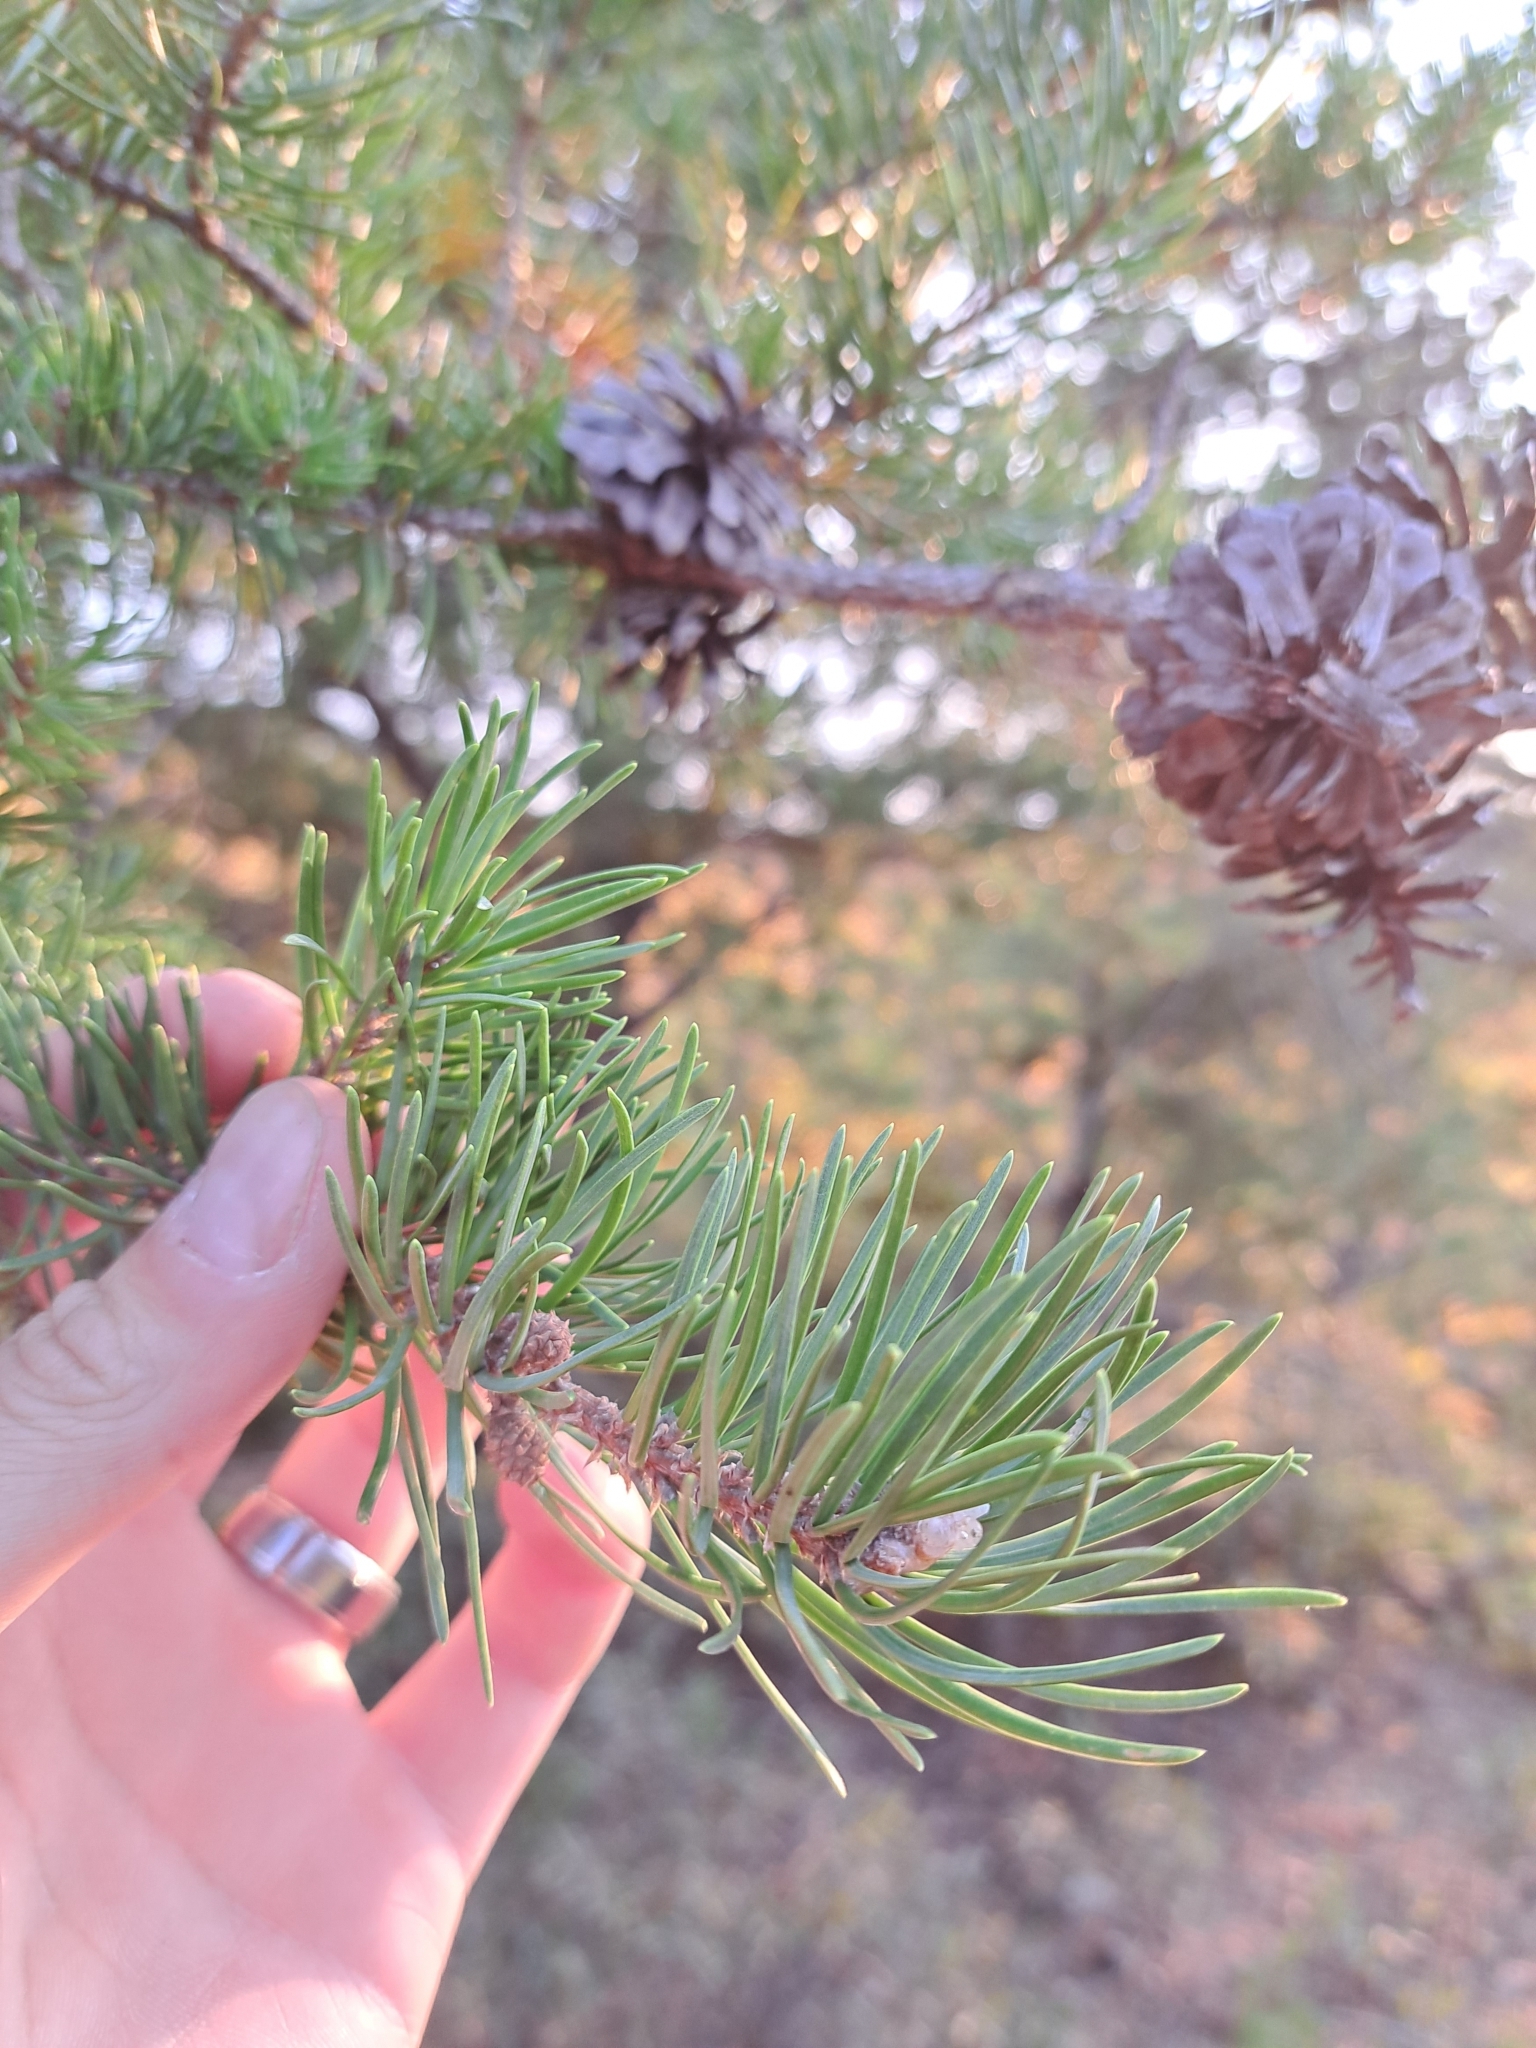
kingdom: Plantae
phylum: Tracheophyta
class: Pinopsida
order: Pinales
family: Pinaceae
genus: Pinus
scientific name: Pinus banksiana
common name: Jack pine
